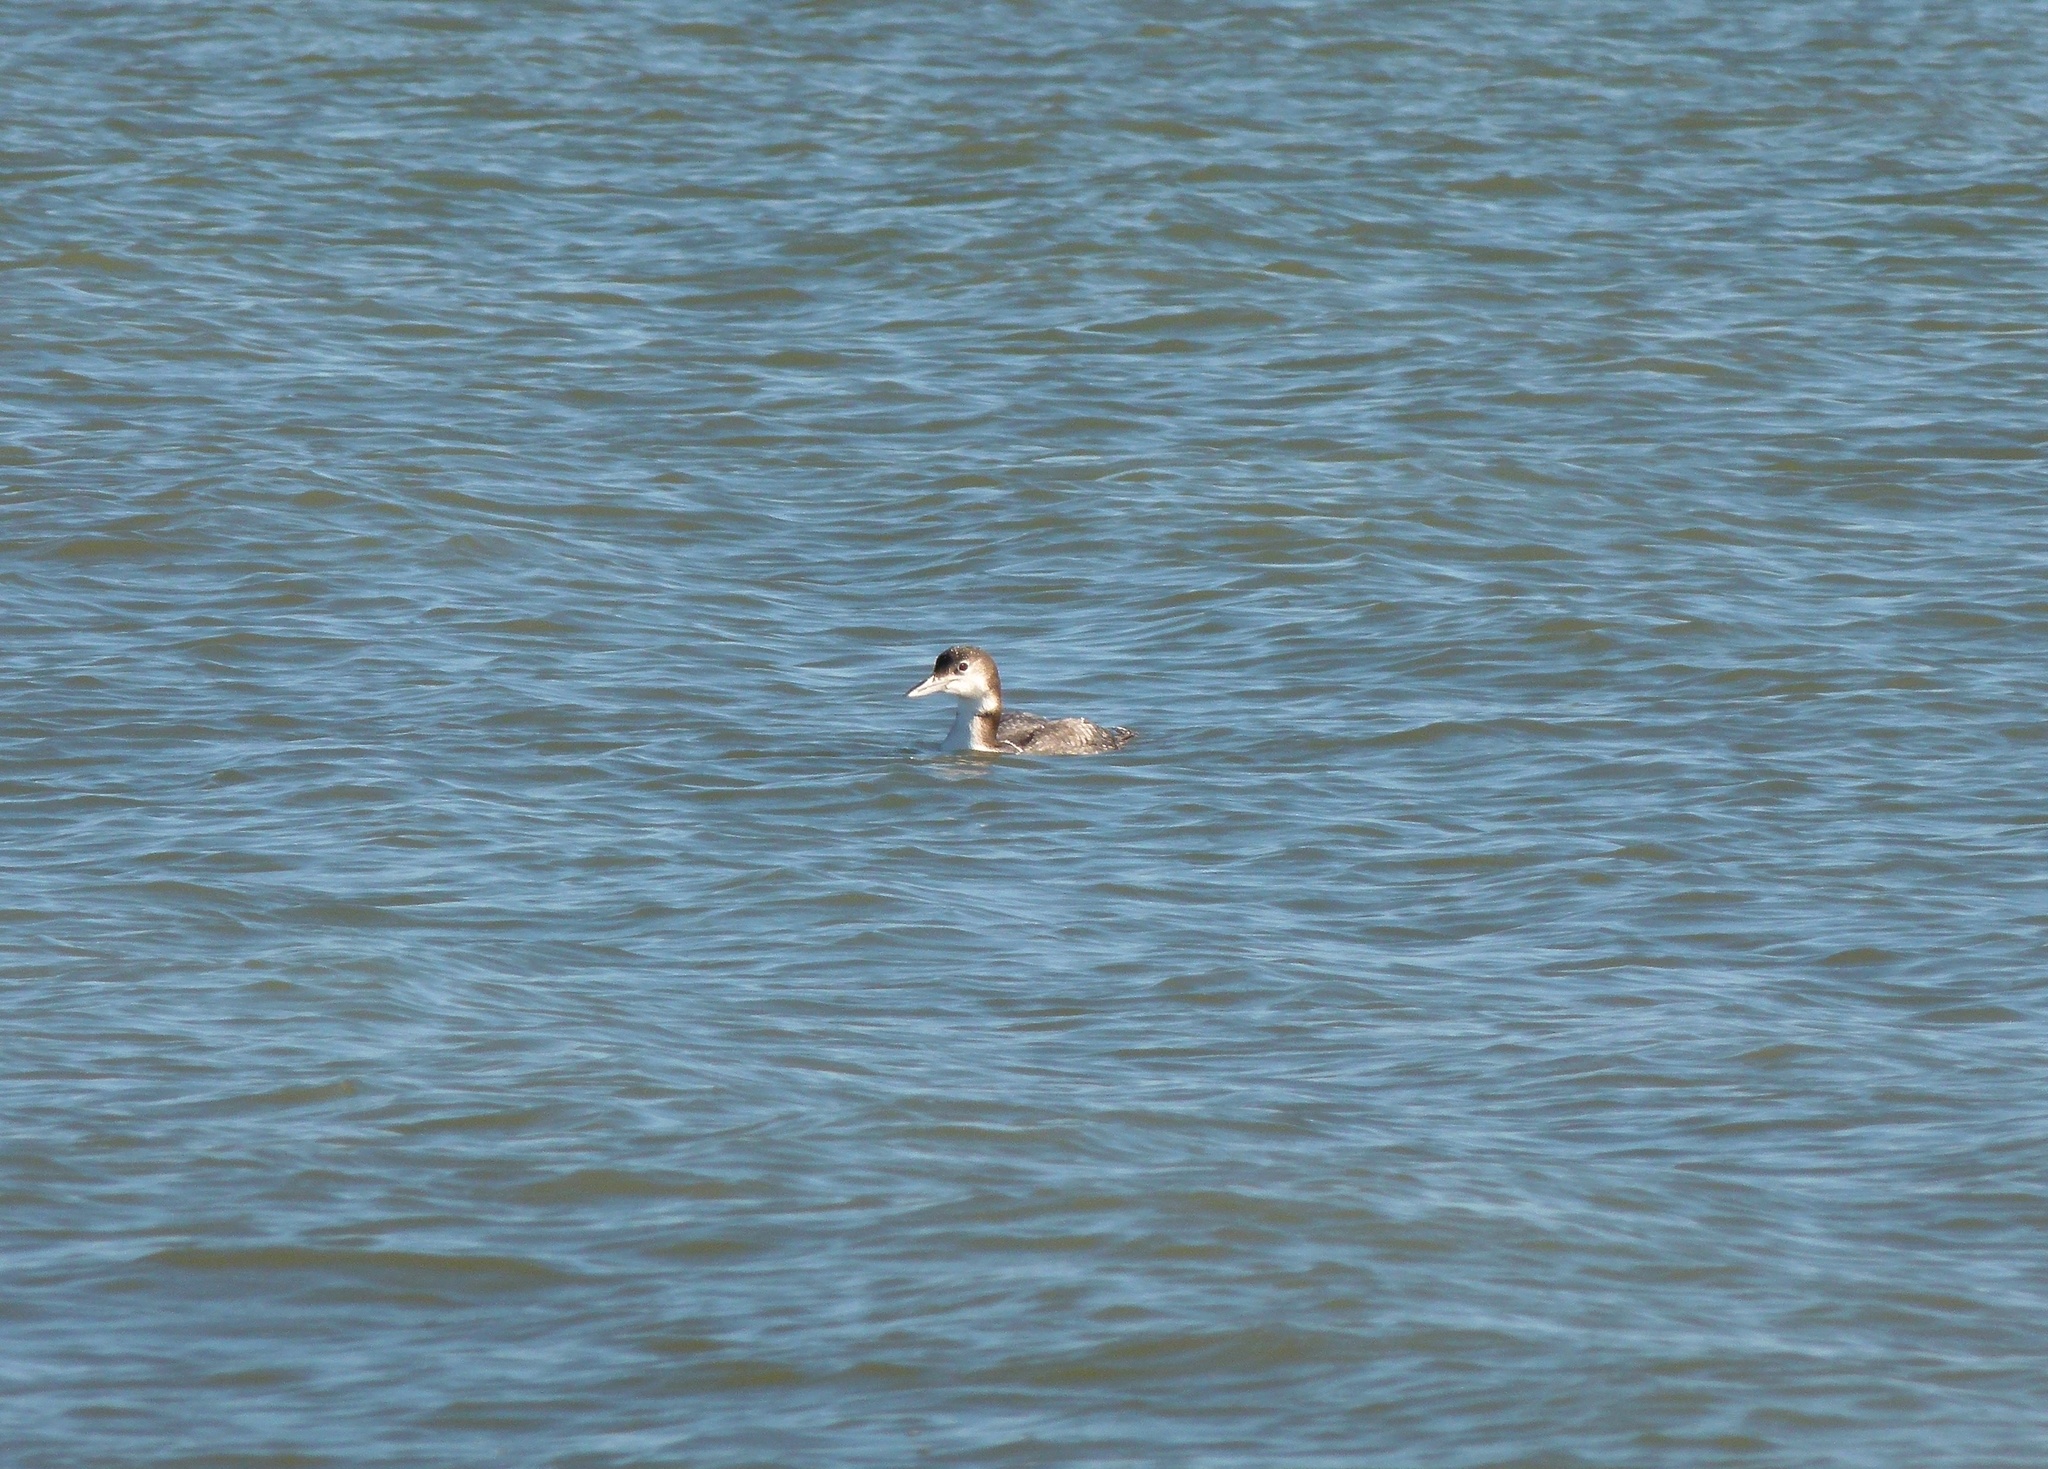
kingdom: Animalia
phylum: Chordata
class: Aves
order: Gaviiformes
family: Gaviidae
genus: Gavia
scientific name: Gavia immer
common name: Common loon
